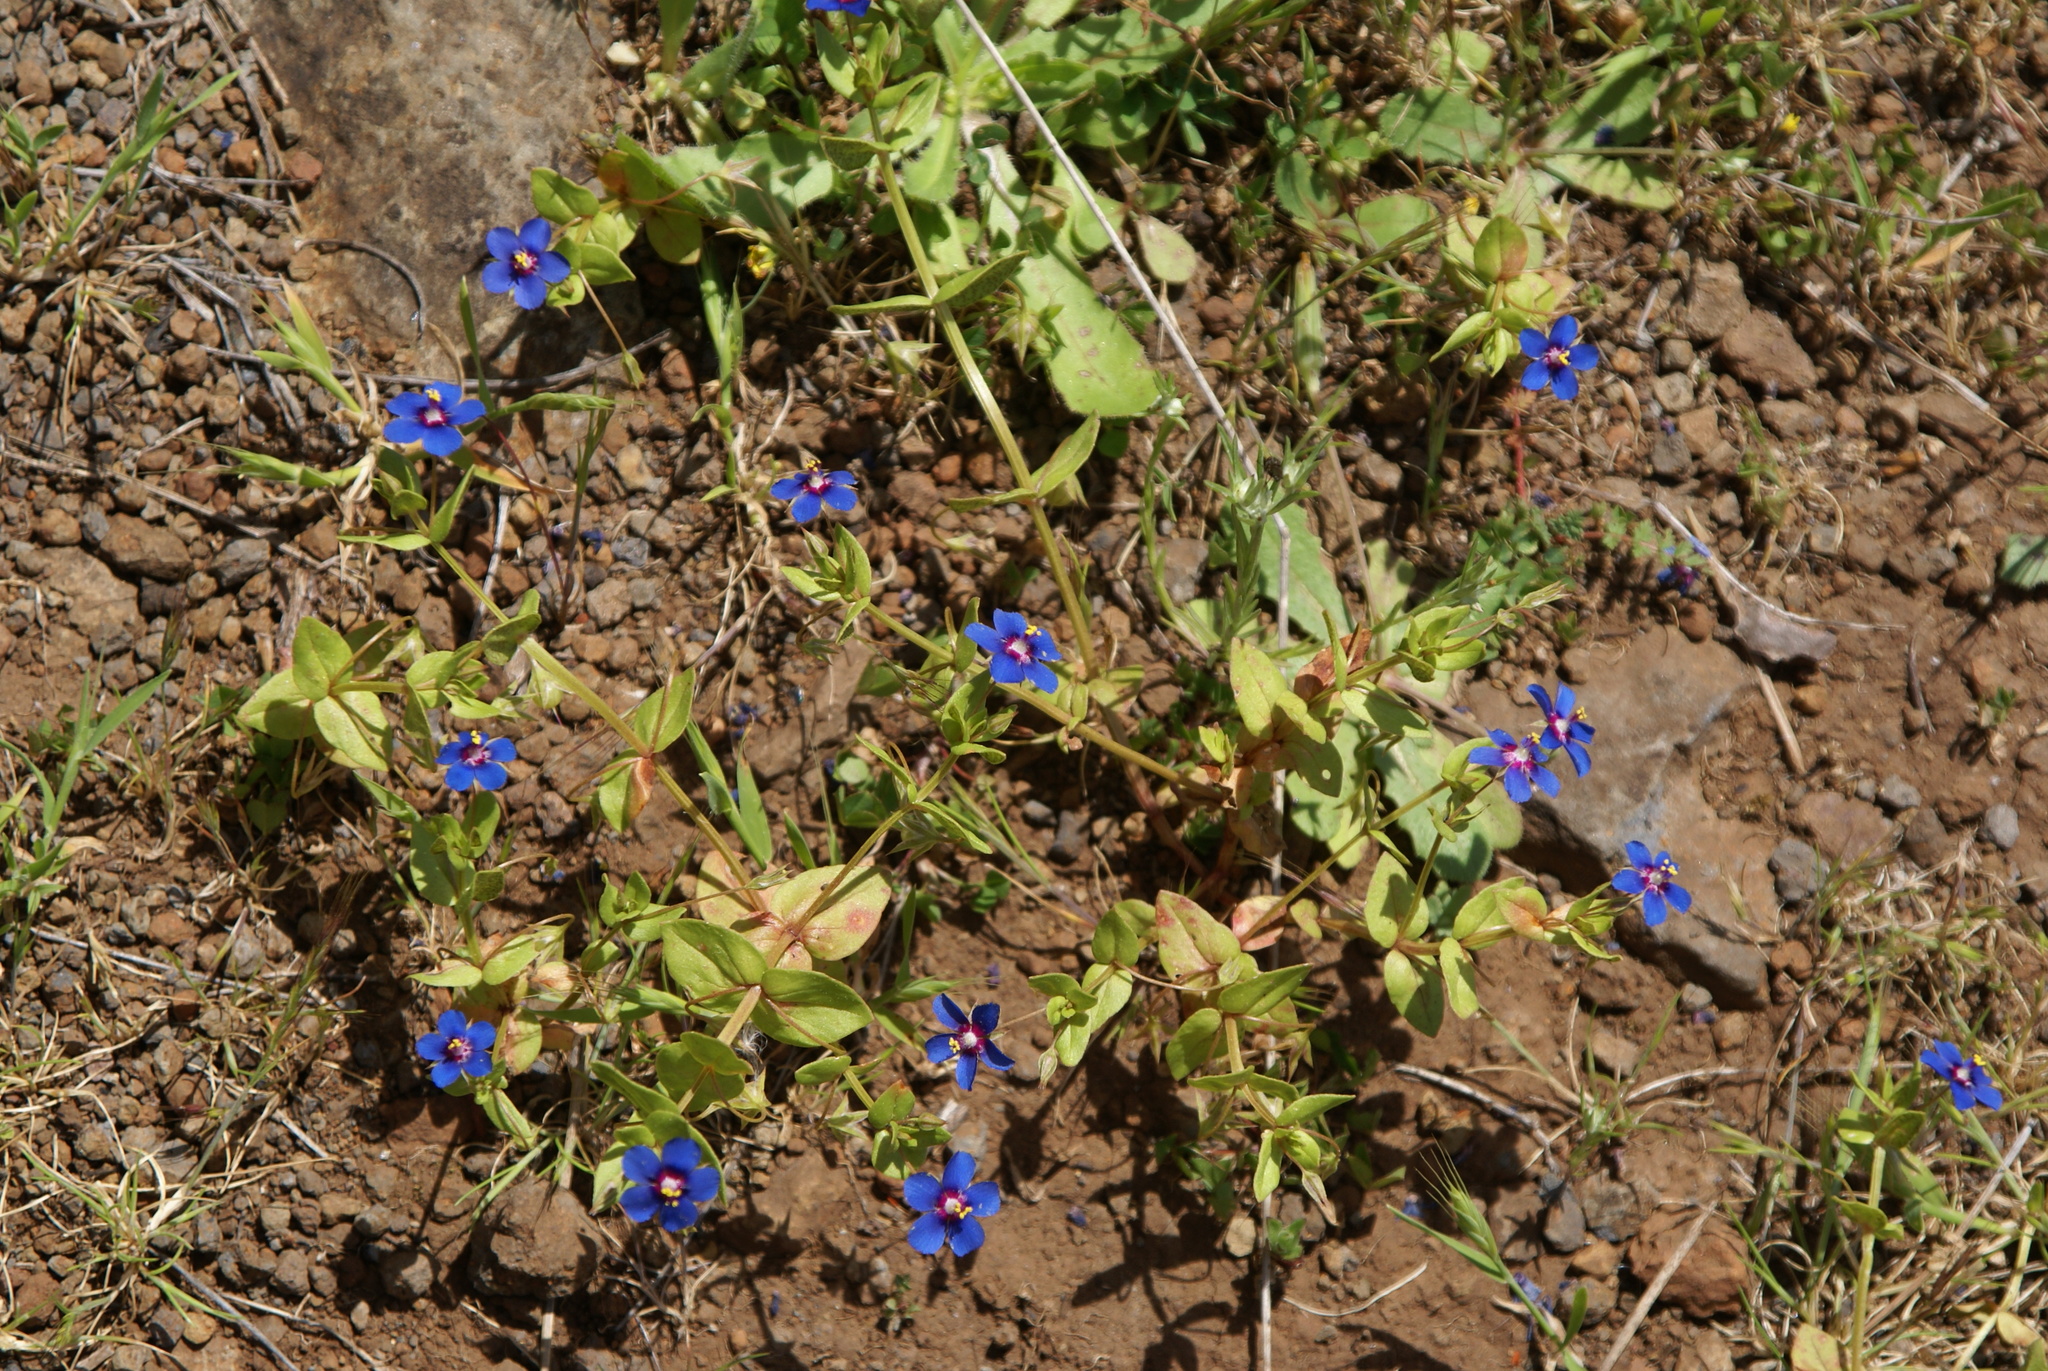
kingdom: Plantae
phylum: Tracheophyta
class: Magnoliopsida
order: Ericales
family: Primulaceae
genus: Lysimachia
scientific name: Lysimachia loeflingii
